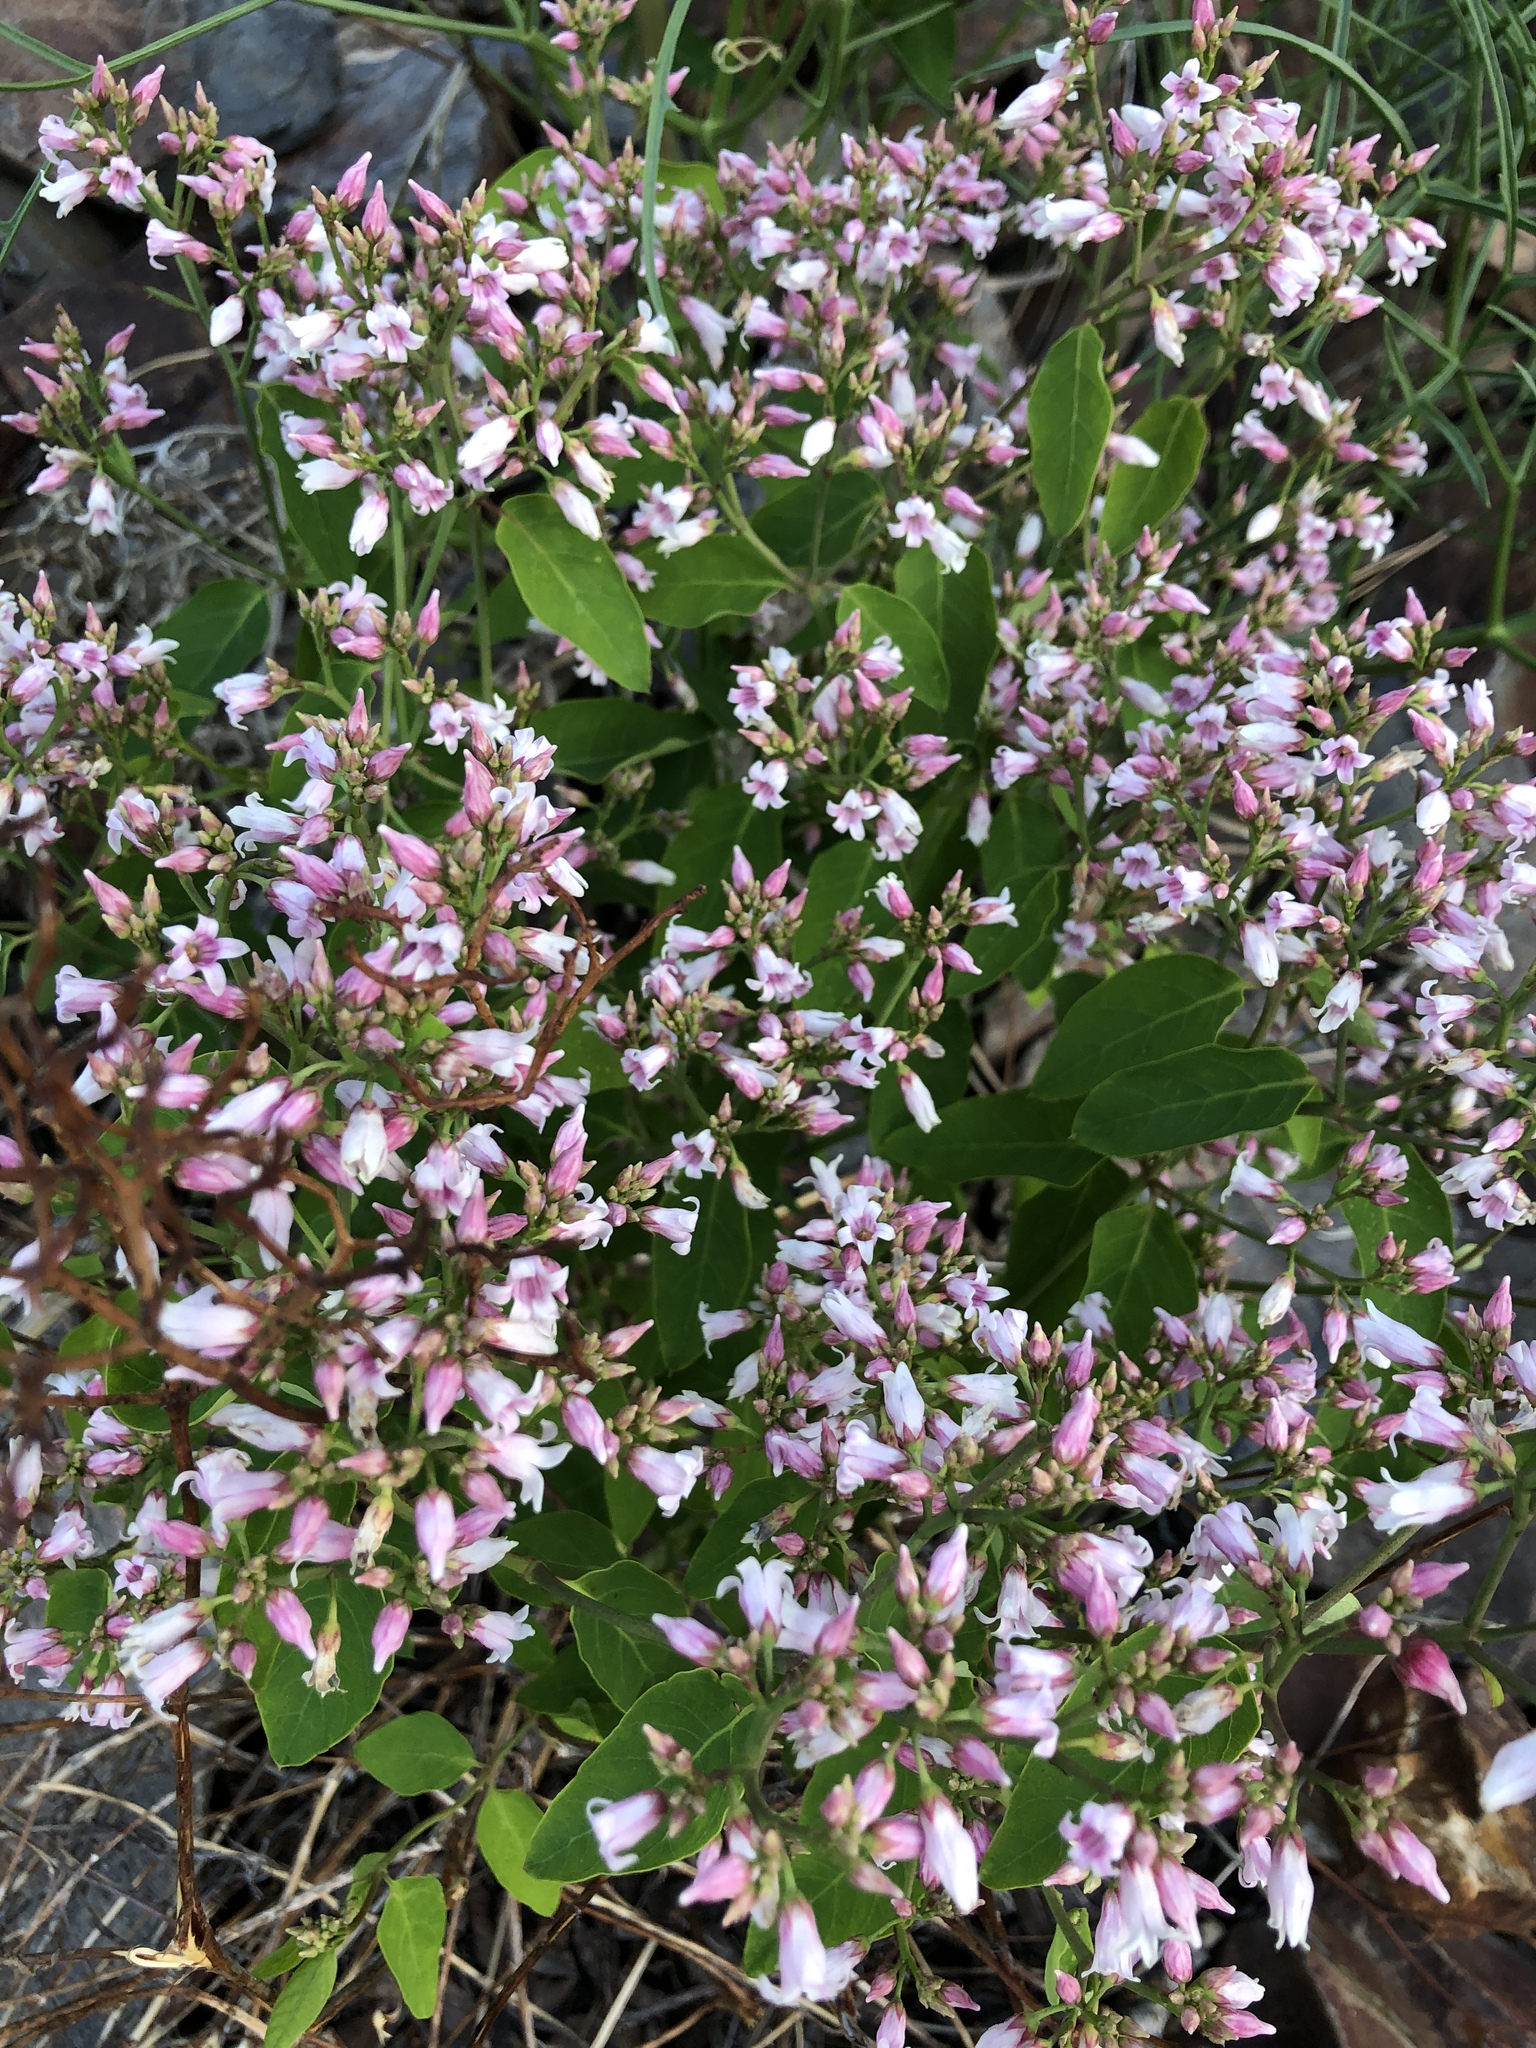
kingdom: Plantae
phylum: Tracheophyta
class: Magnoliopsida
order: Gentianales
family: Apocynaceae
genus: Apocynum
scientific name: Apocynum androsaemifolium
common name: Spreading dogbane
